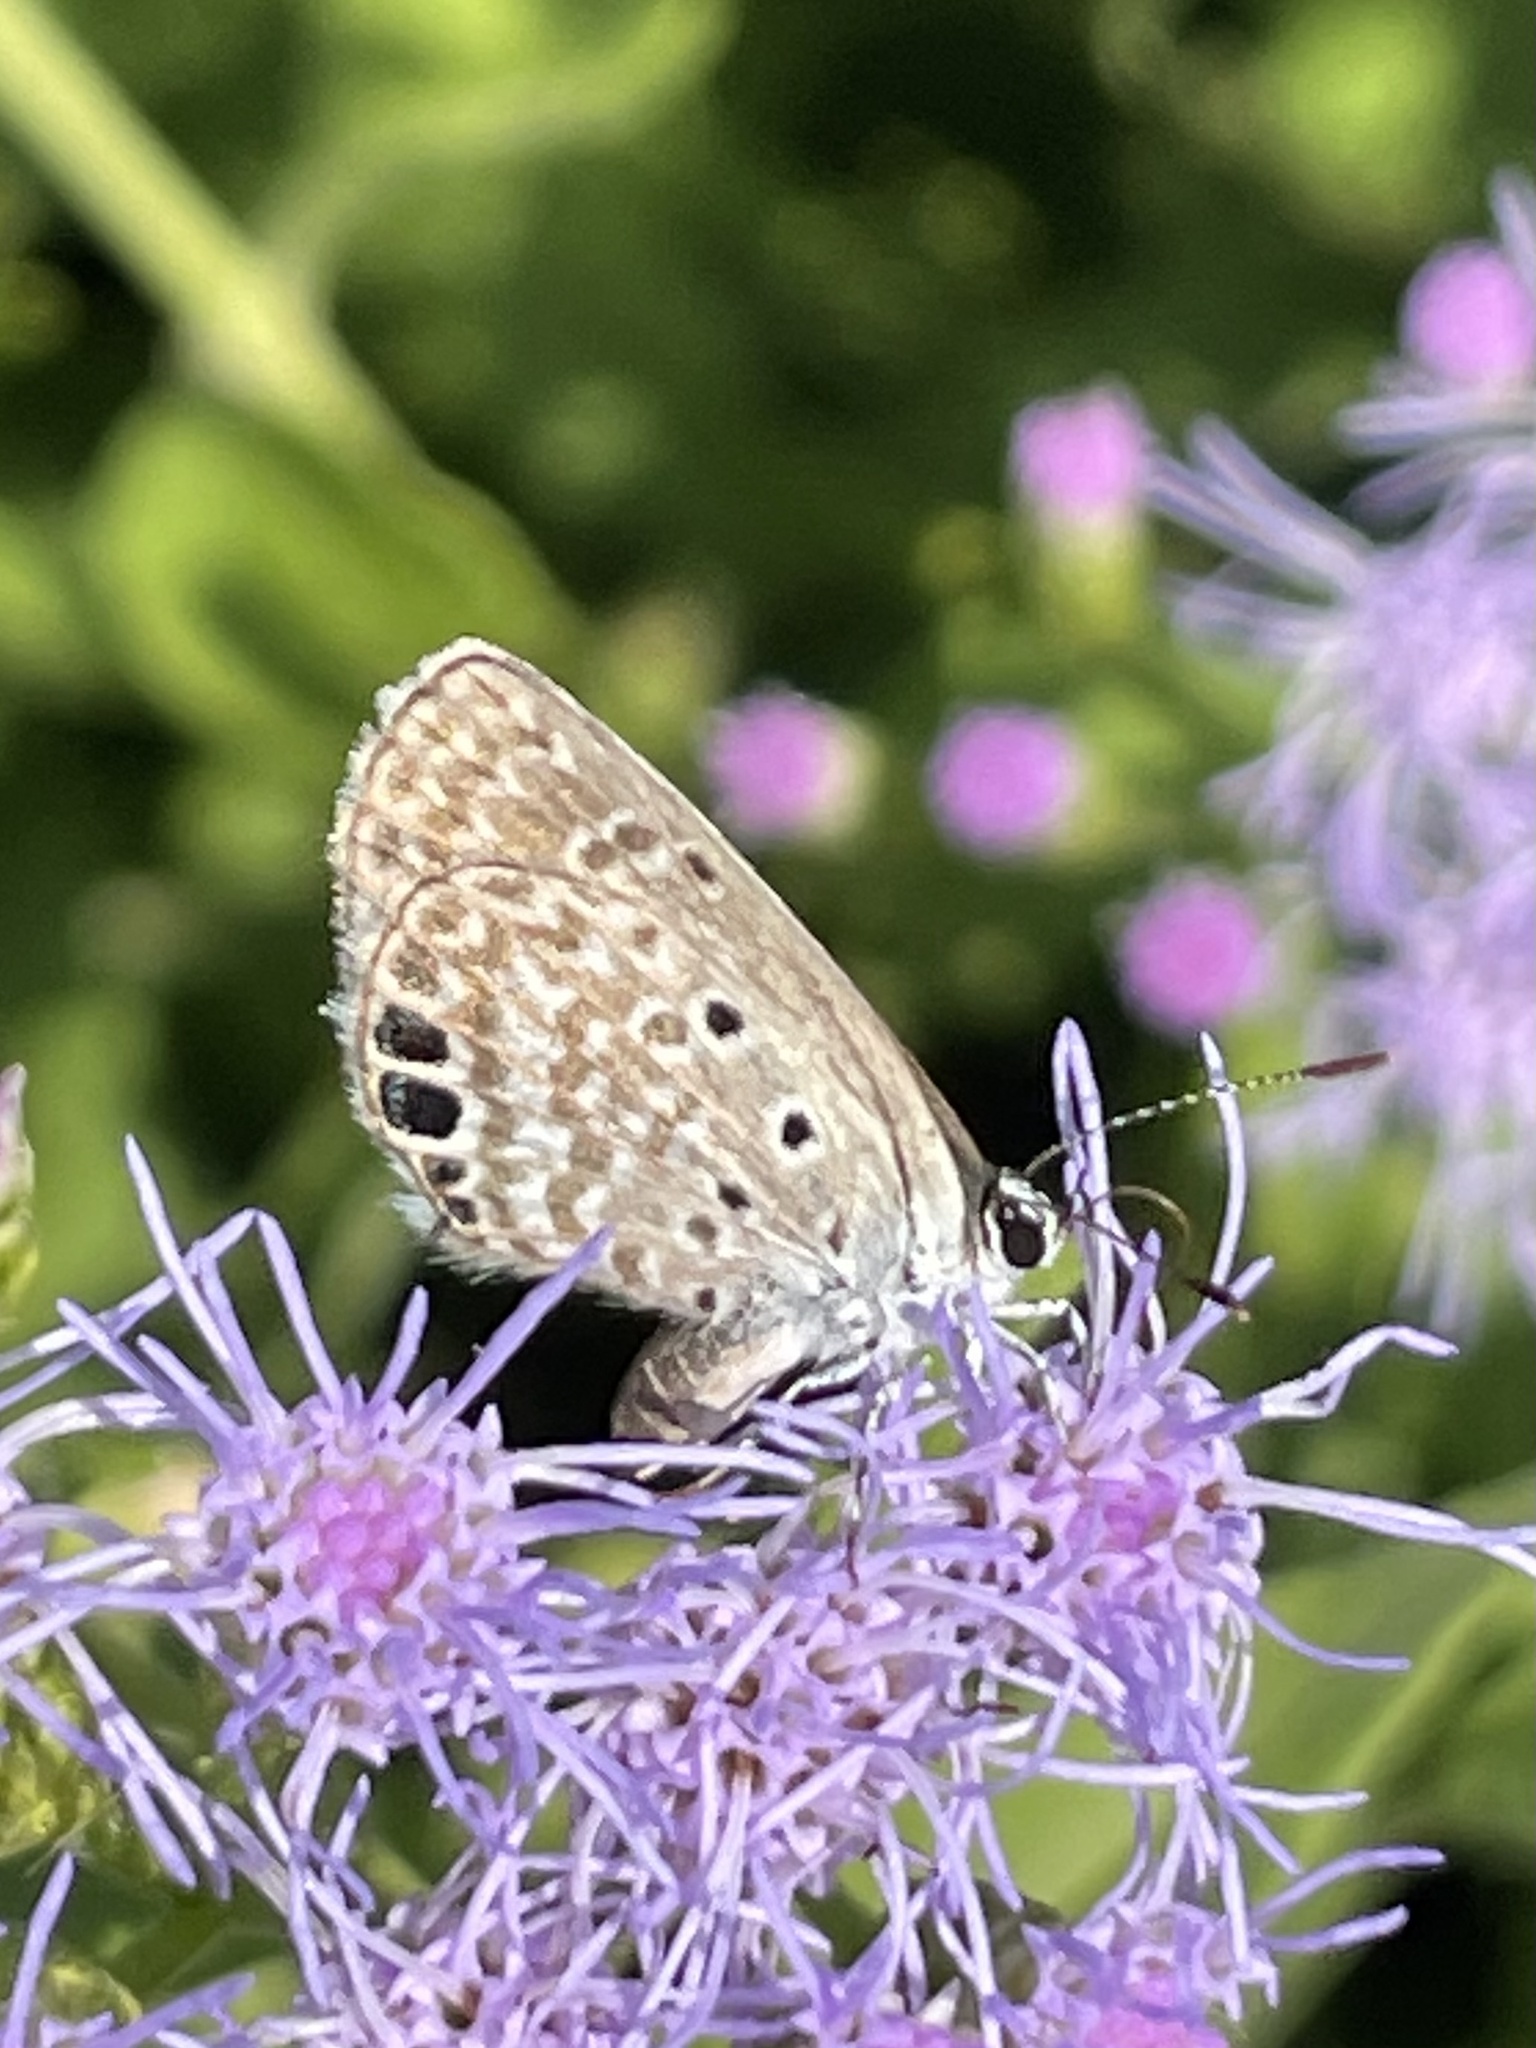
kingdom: Animalia
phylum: Arthropoda
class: Insecta
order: Lepidoptera
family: Lycaenidae
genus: Hemiargus
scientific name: Hemiargus ceraunus
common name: Ceraunus blue
